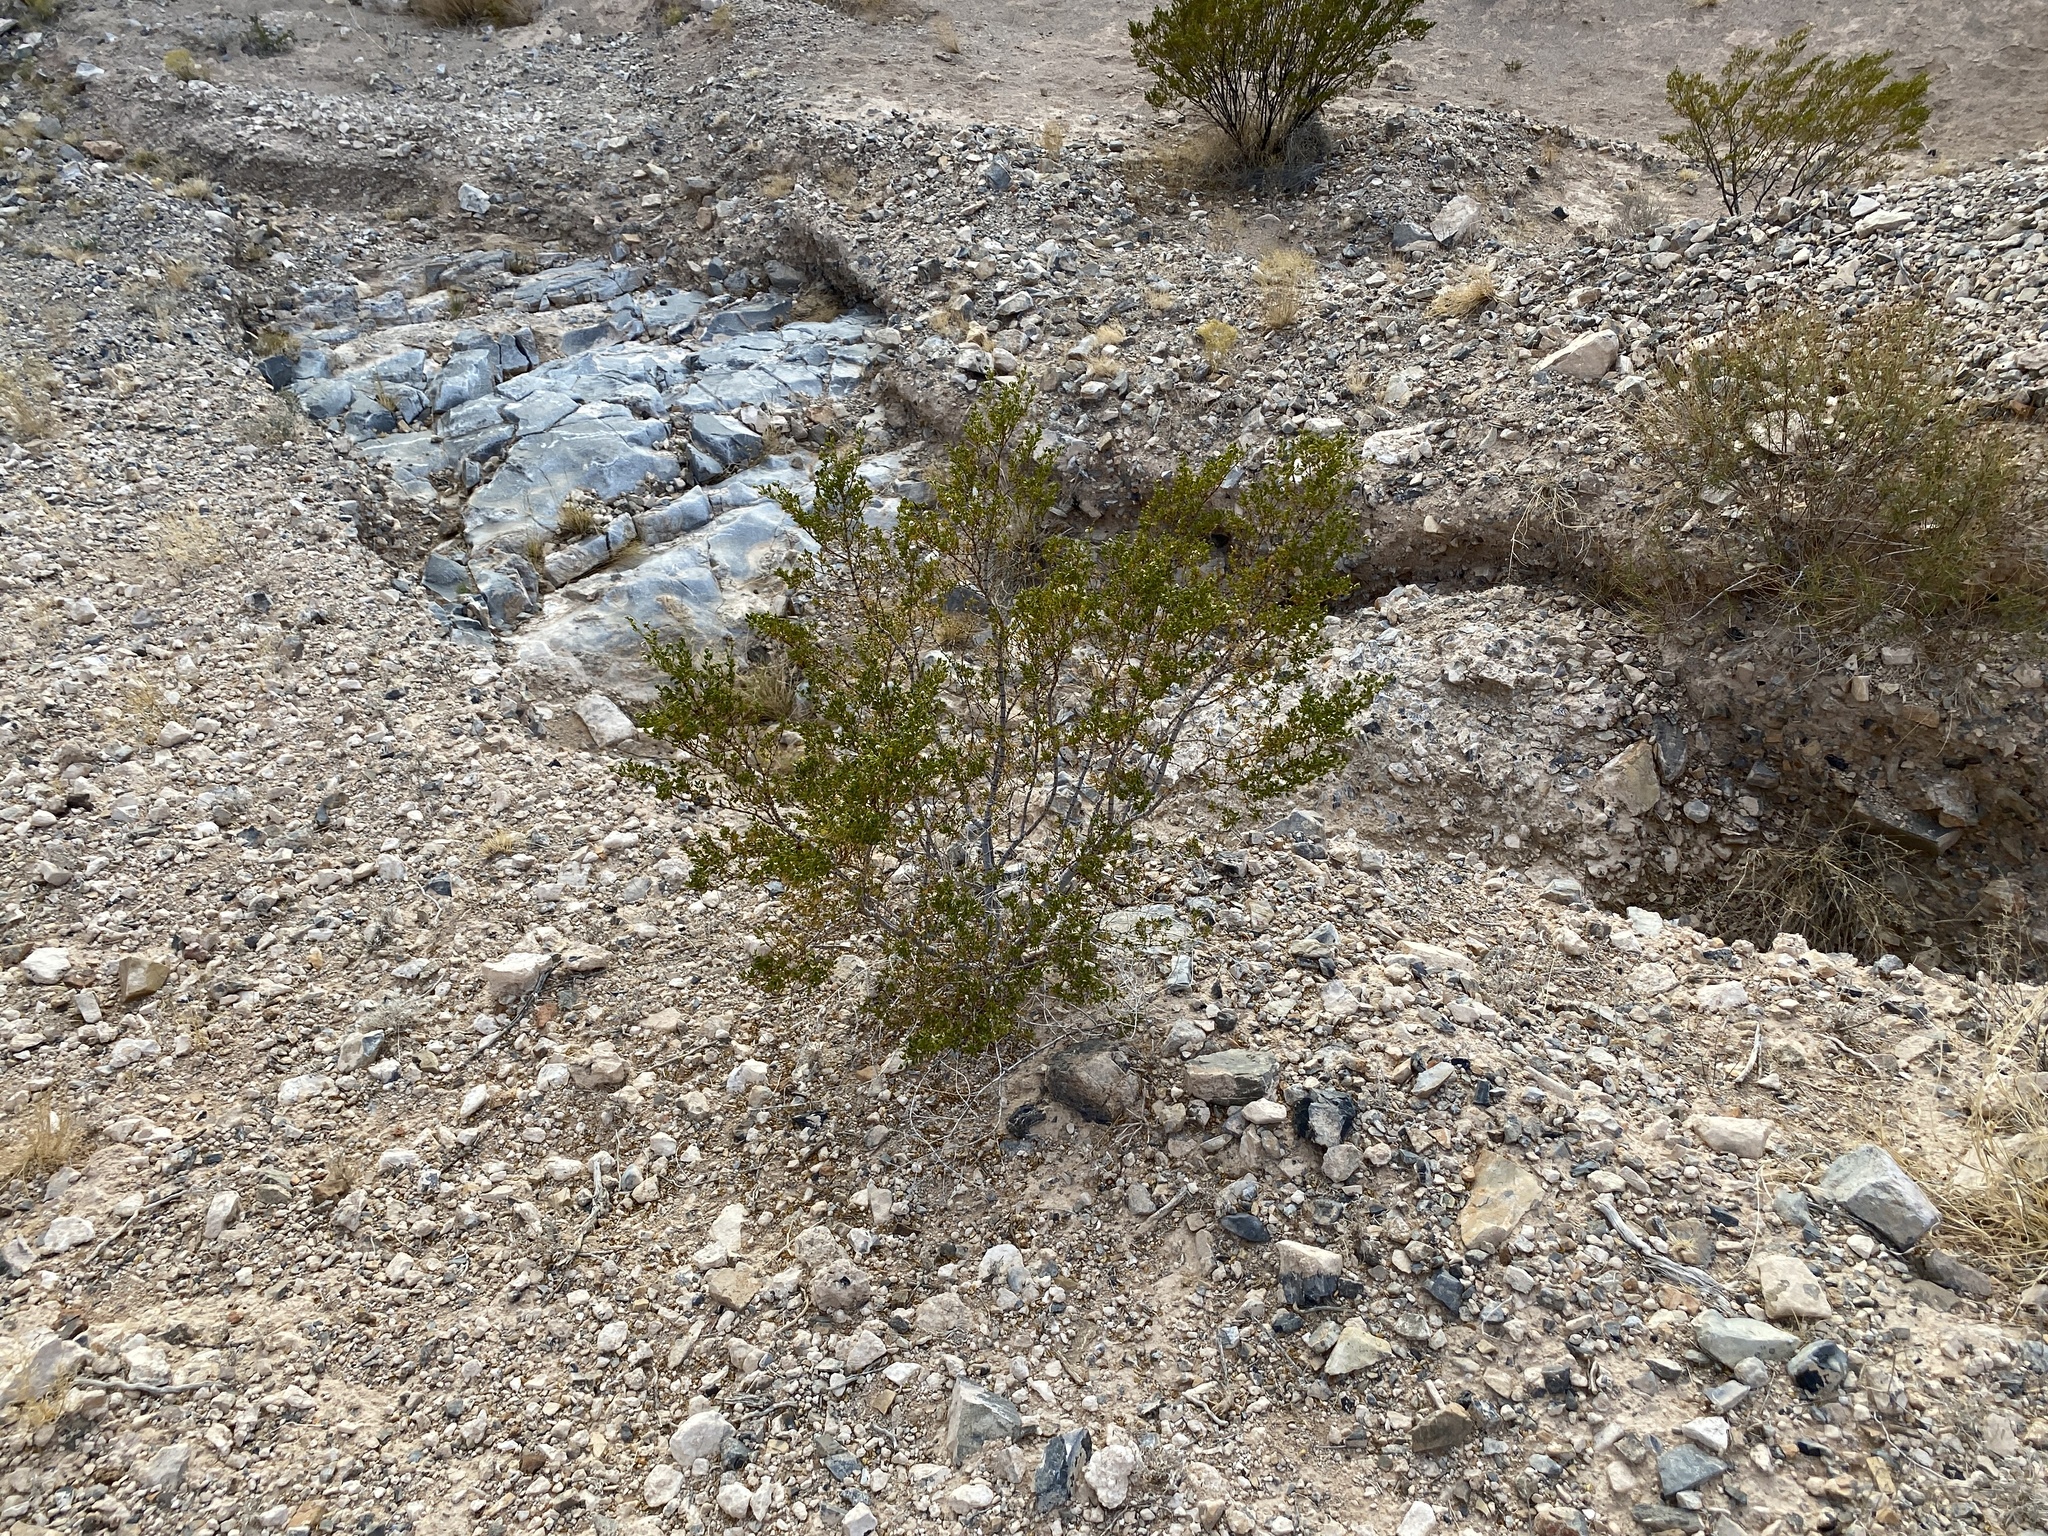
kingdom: Plantae
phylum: Tracheophyta
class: Magnoliopsida
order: Zygophyllales
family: Zygophyllaceae
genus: Larrea
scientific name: Larrea tridentata
